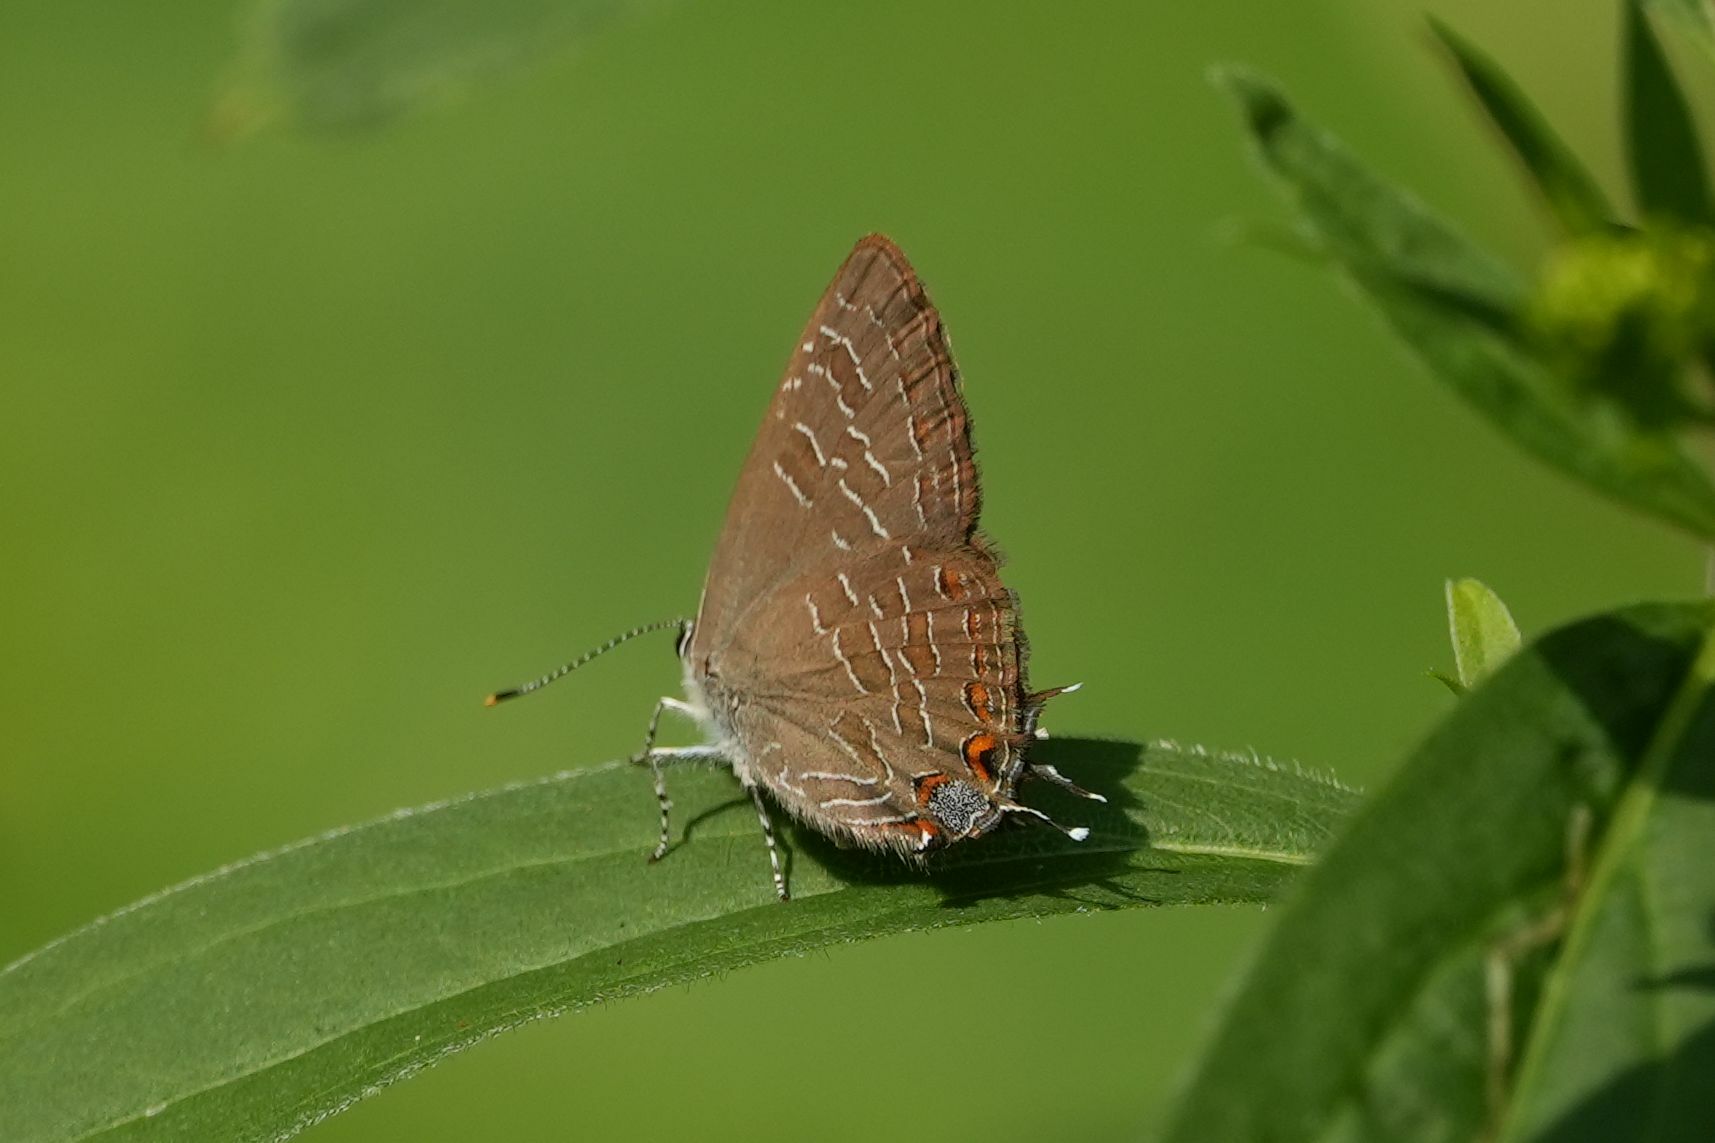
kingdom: Animalia
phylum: Arthropoda
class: Insecta
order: Lepidoptera
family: Lycaenidae
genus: Satyrium
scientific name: Satyrium liparops
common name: Striped hairstreak
